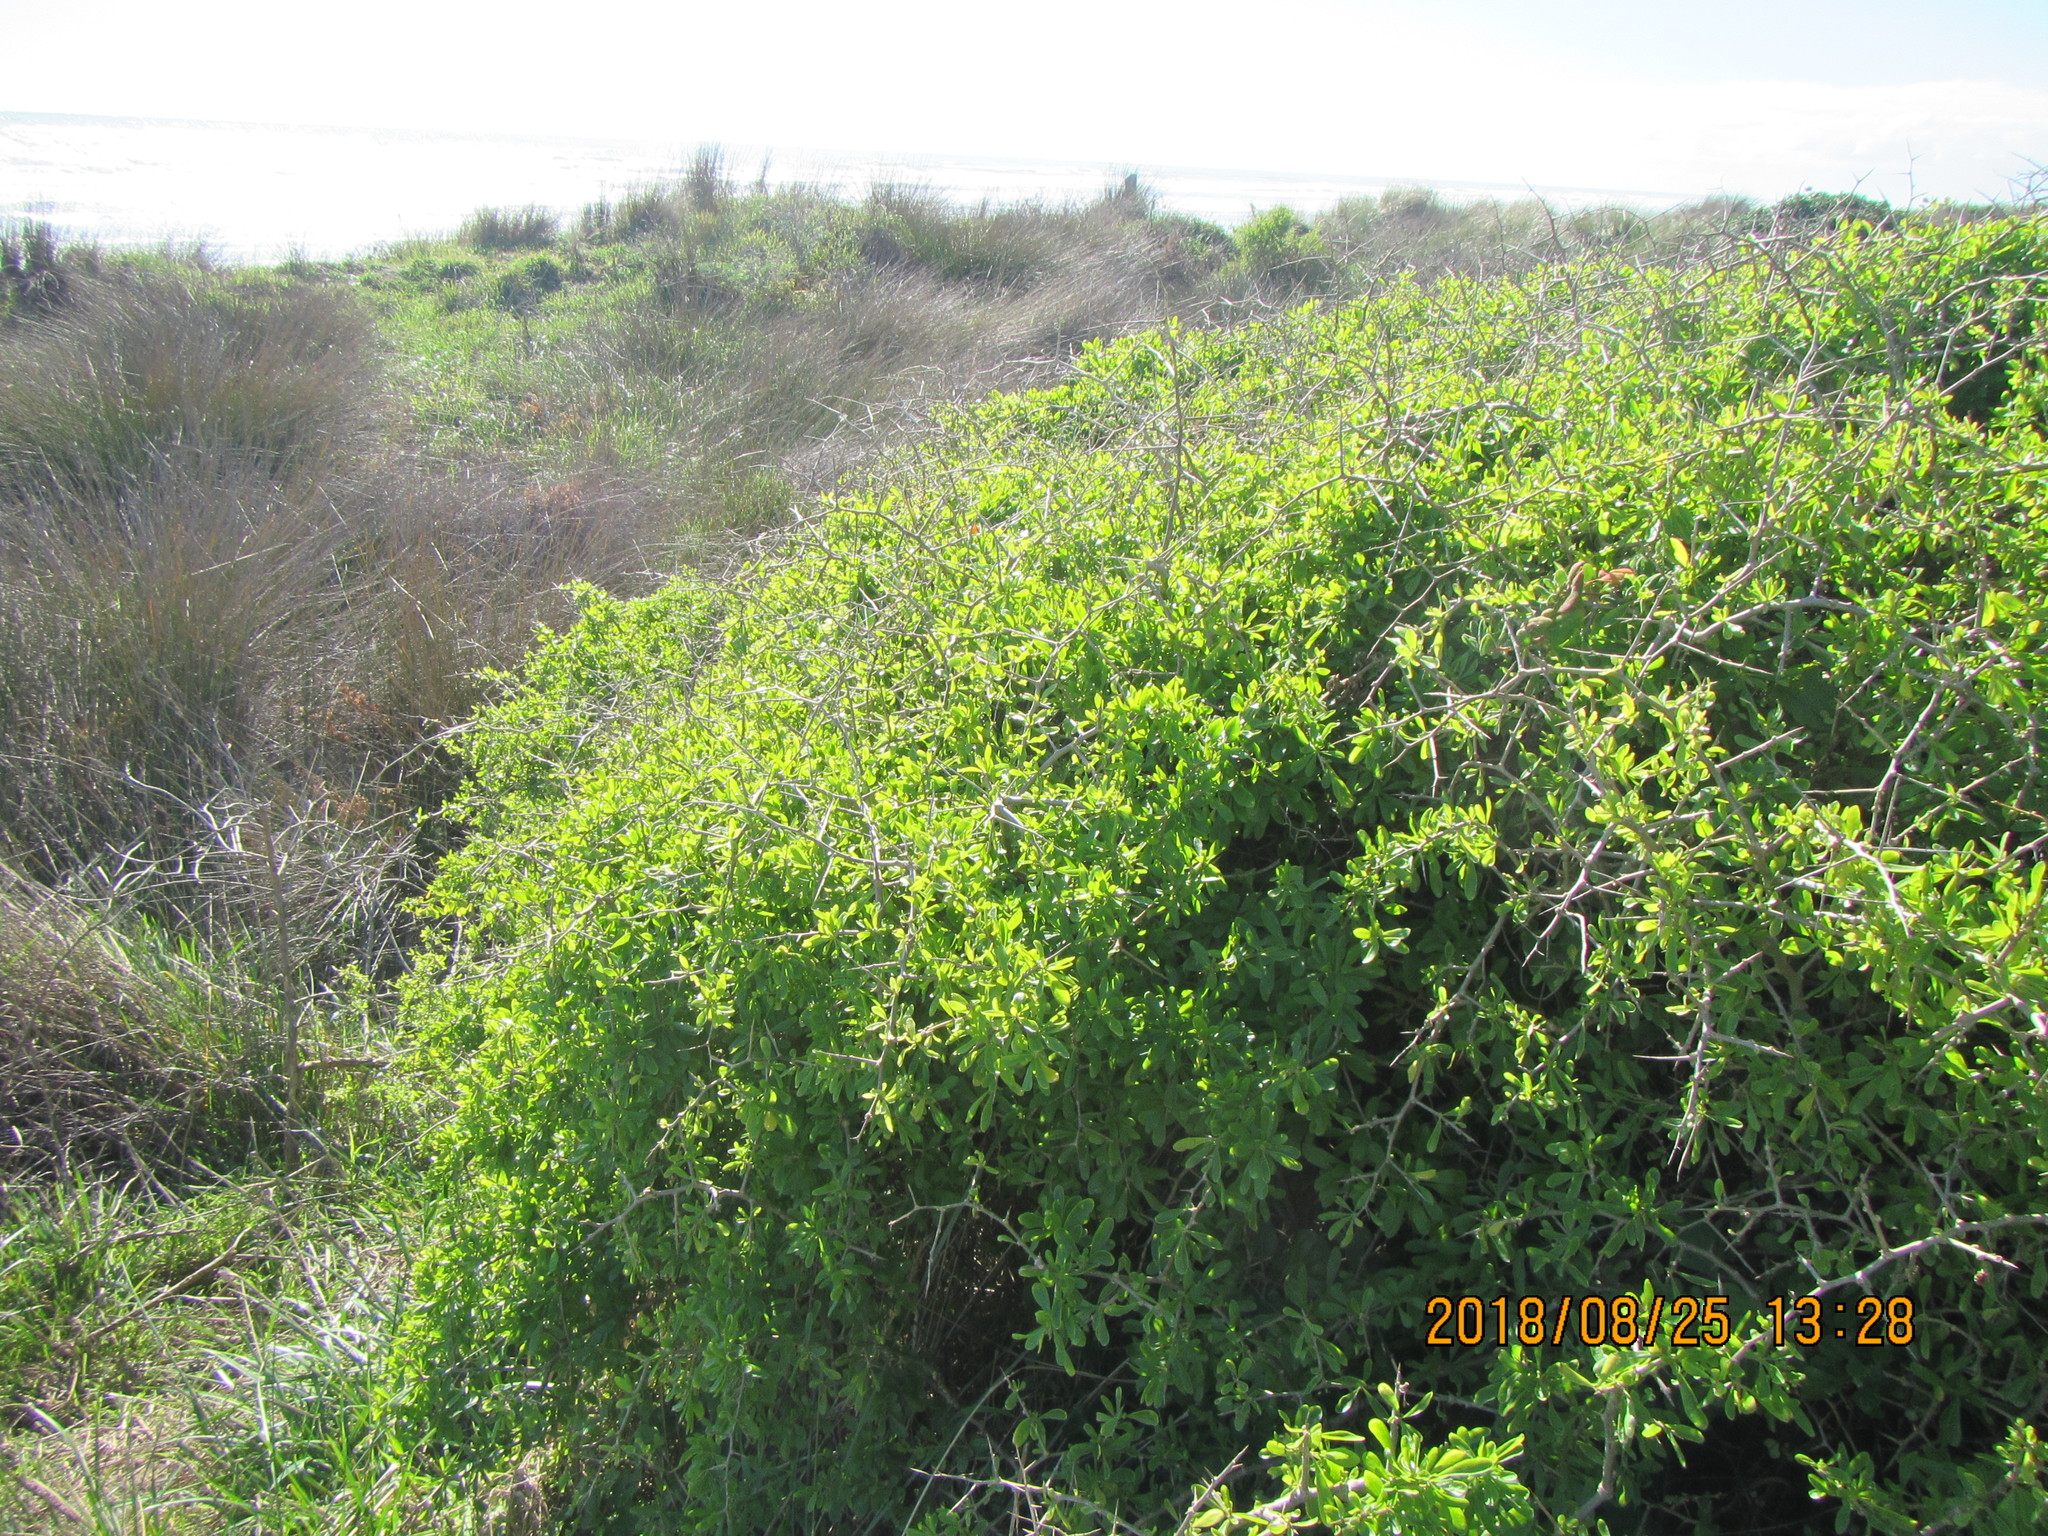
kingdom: Plantae
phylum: Tracheophyta
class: Magnoliopsida
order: Solanales
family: Solanaceae
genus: Lycium
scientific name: Lycium ferocissimum
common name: African boxthorn
